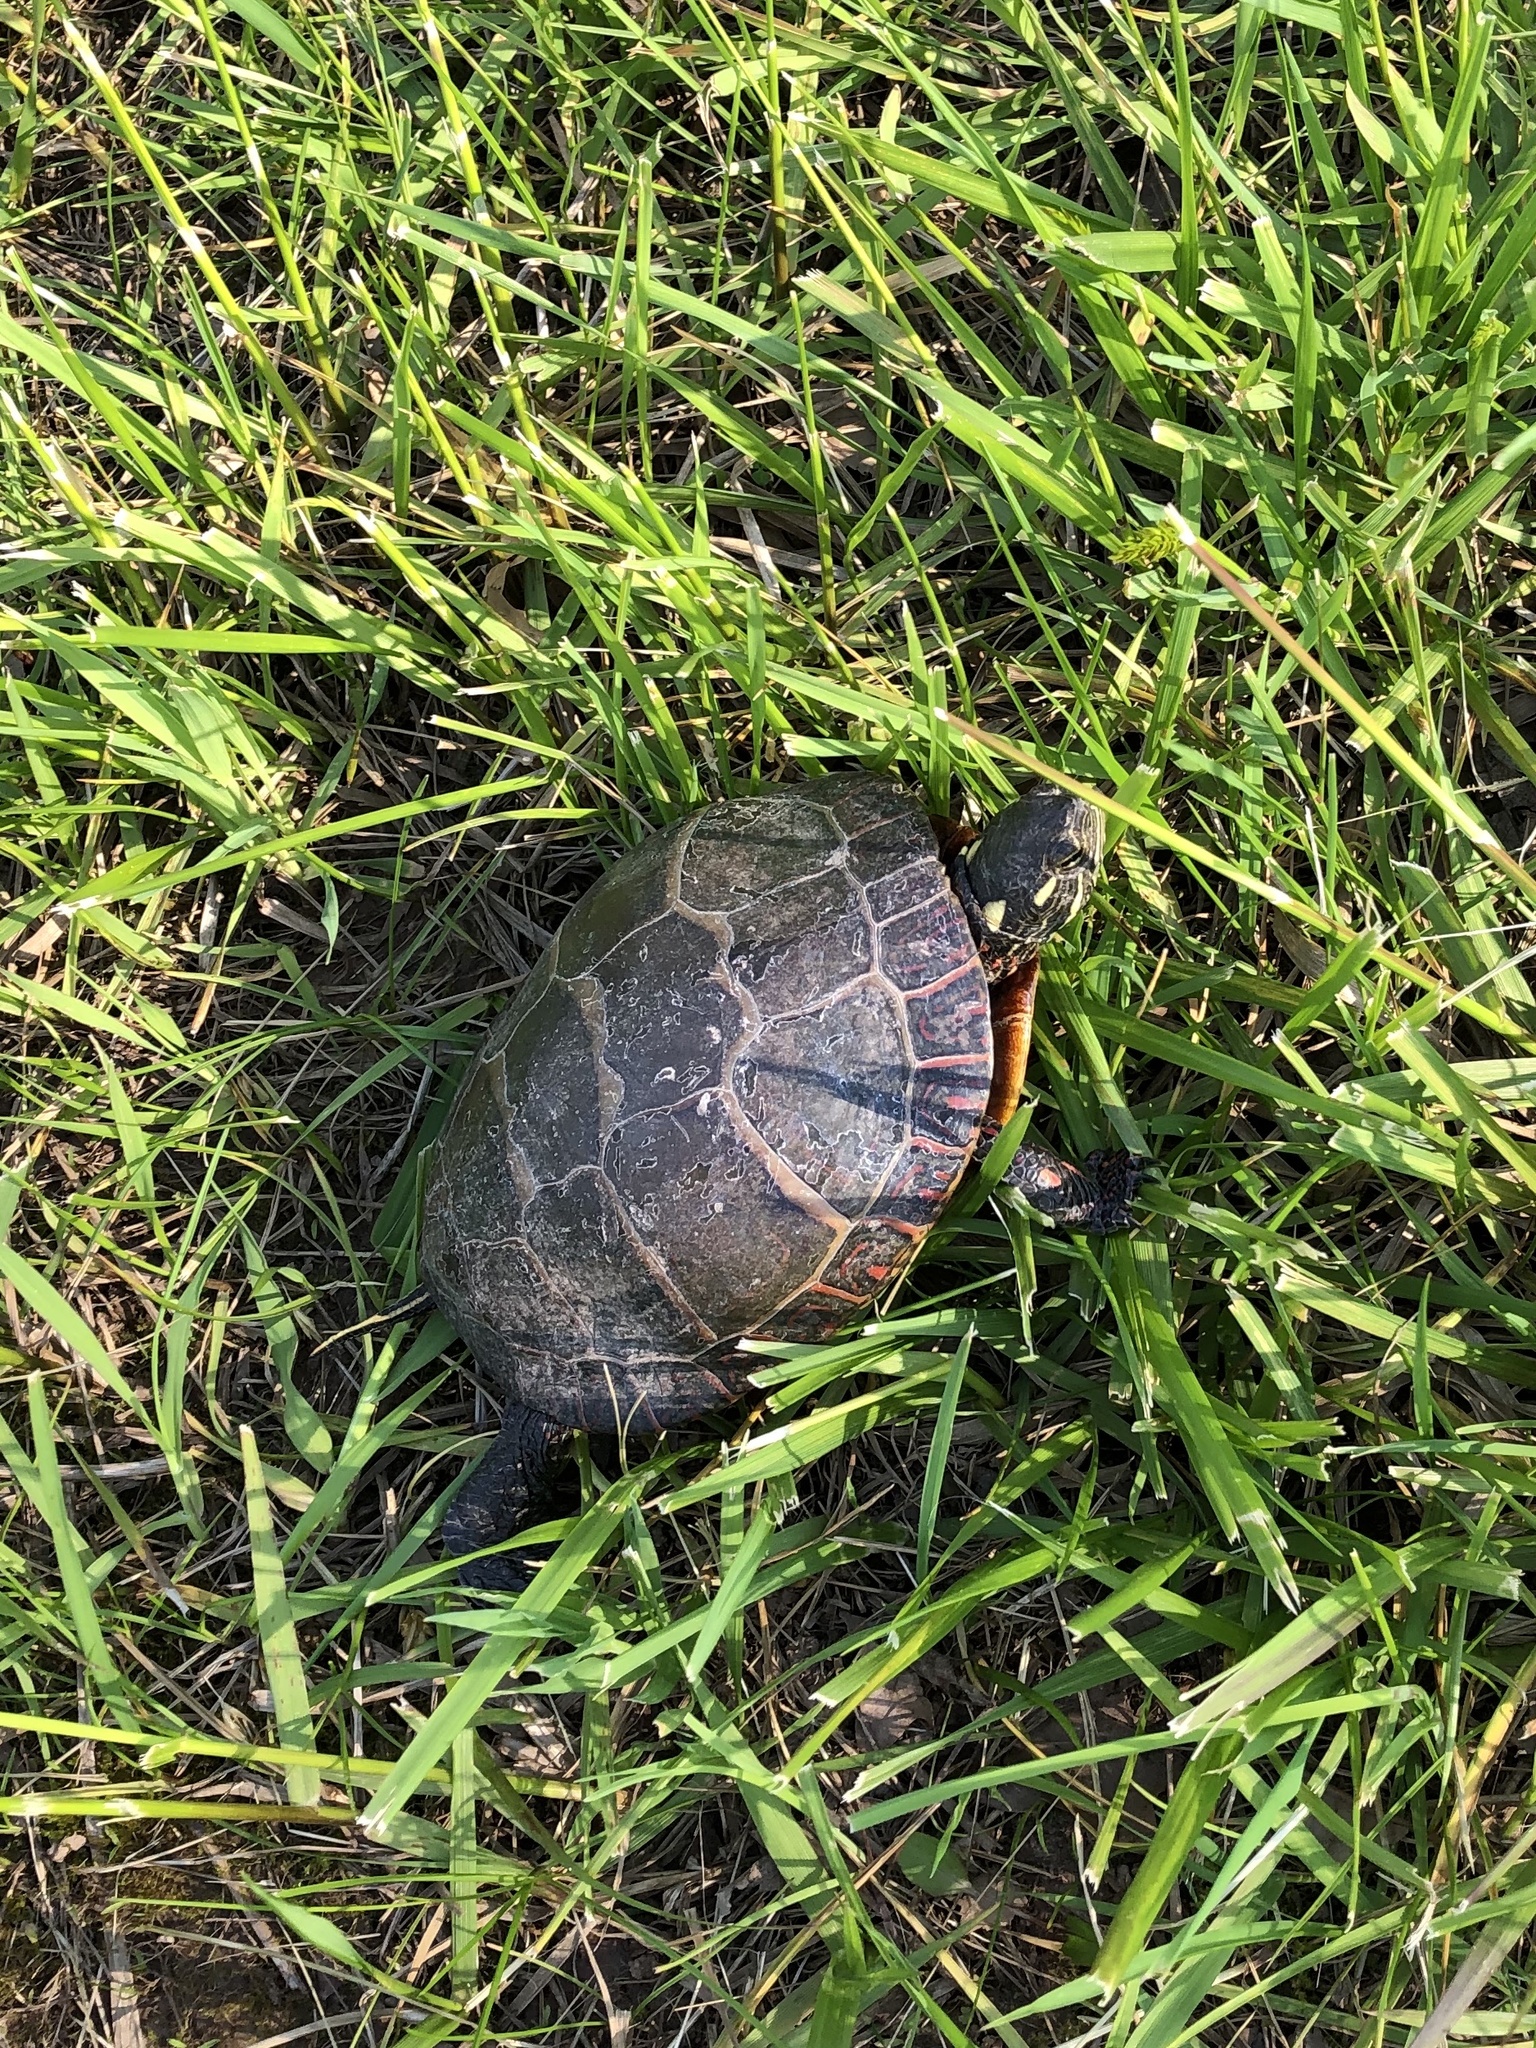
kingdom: Animalia
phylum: Chordata
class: Testudines
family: Emydidae
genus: Chrysemys
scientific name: Chrysemys picta
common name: Painted turtle
